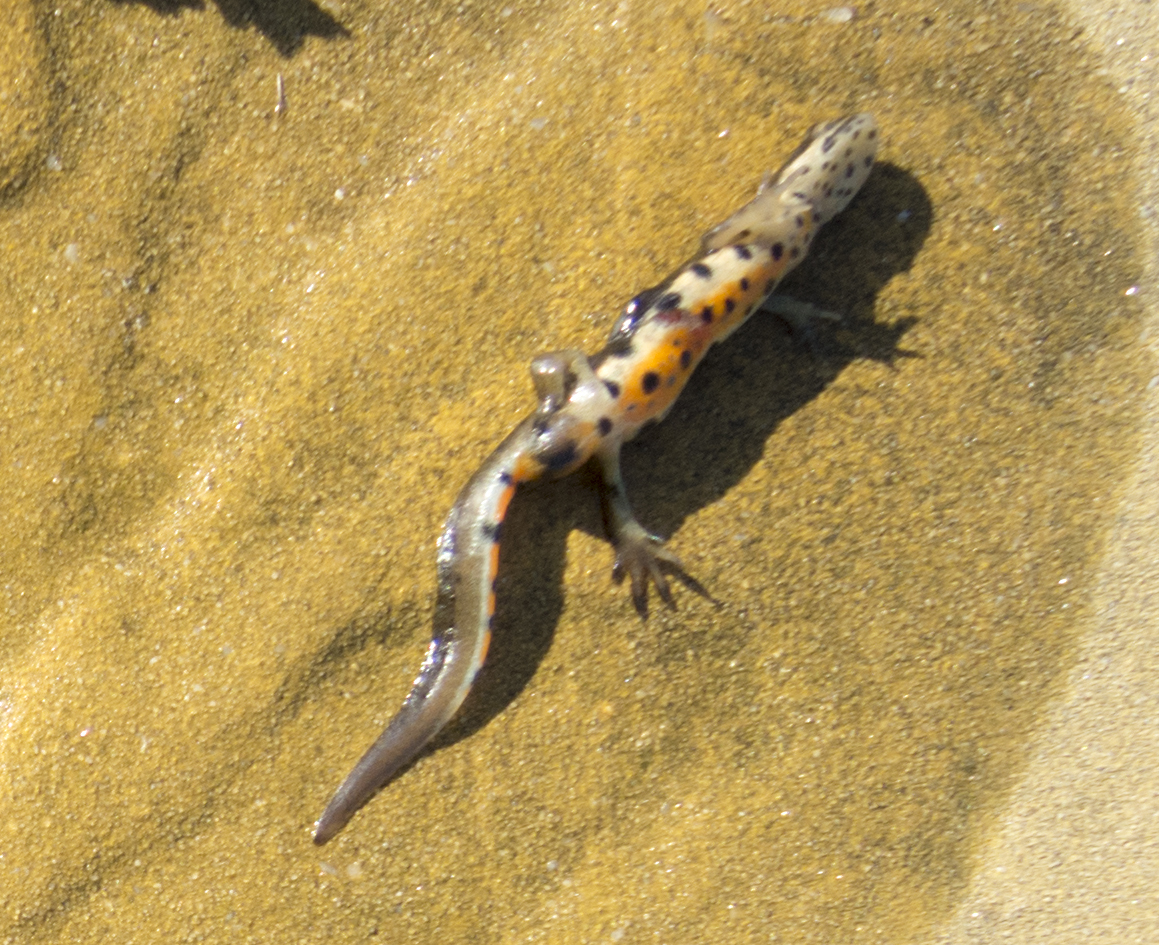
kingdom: Animalia
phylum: Chordata
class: Amphibia
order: Caudata
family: Salamandridae
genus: Lissotriton
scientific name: Lissotriton schmidtleri
